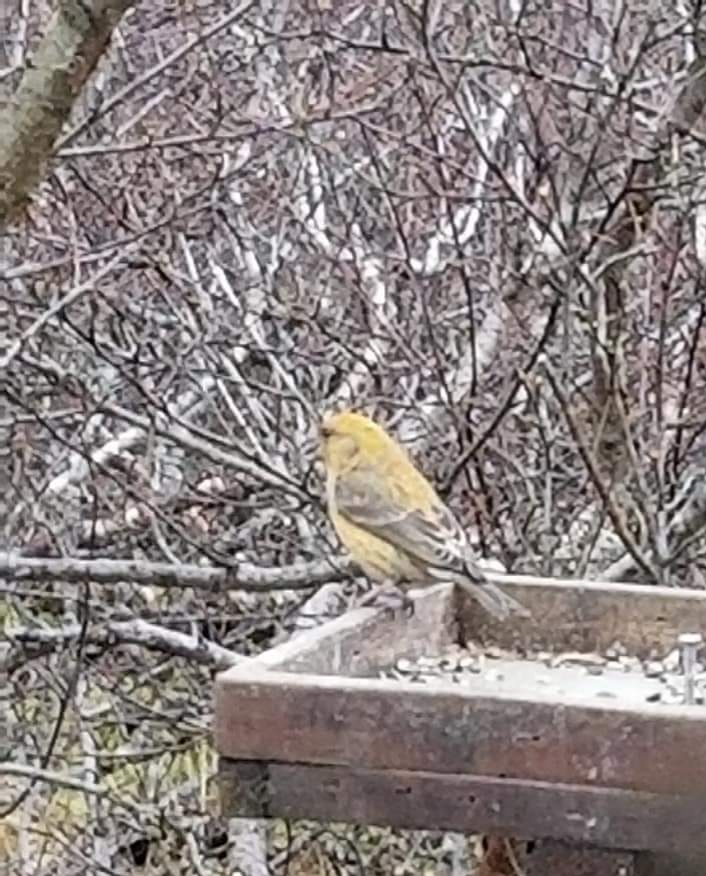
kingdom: Animalia
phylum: Chordata
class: Aves
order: Passeriformes
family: Fringillidae
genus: Loxia
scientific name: Loxia curvirostra
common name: Red crossbill
